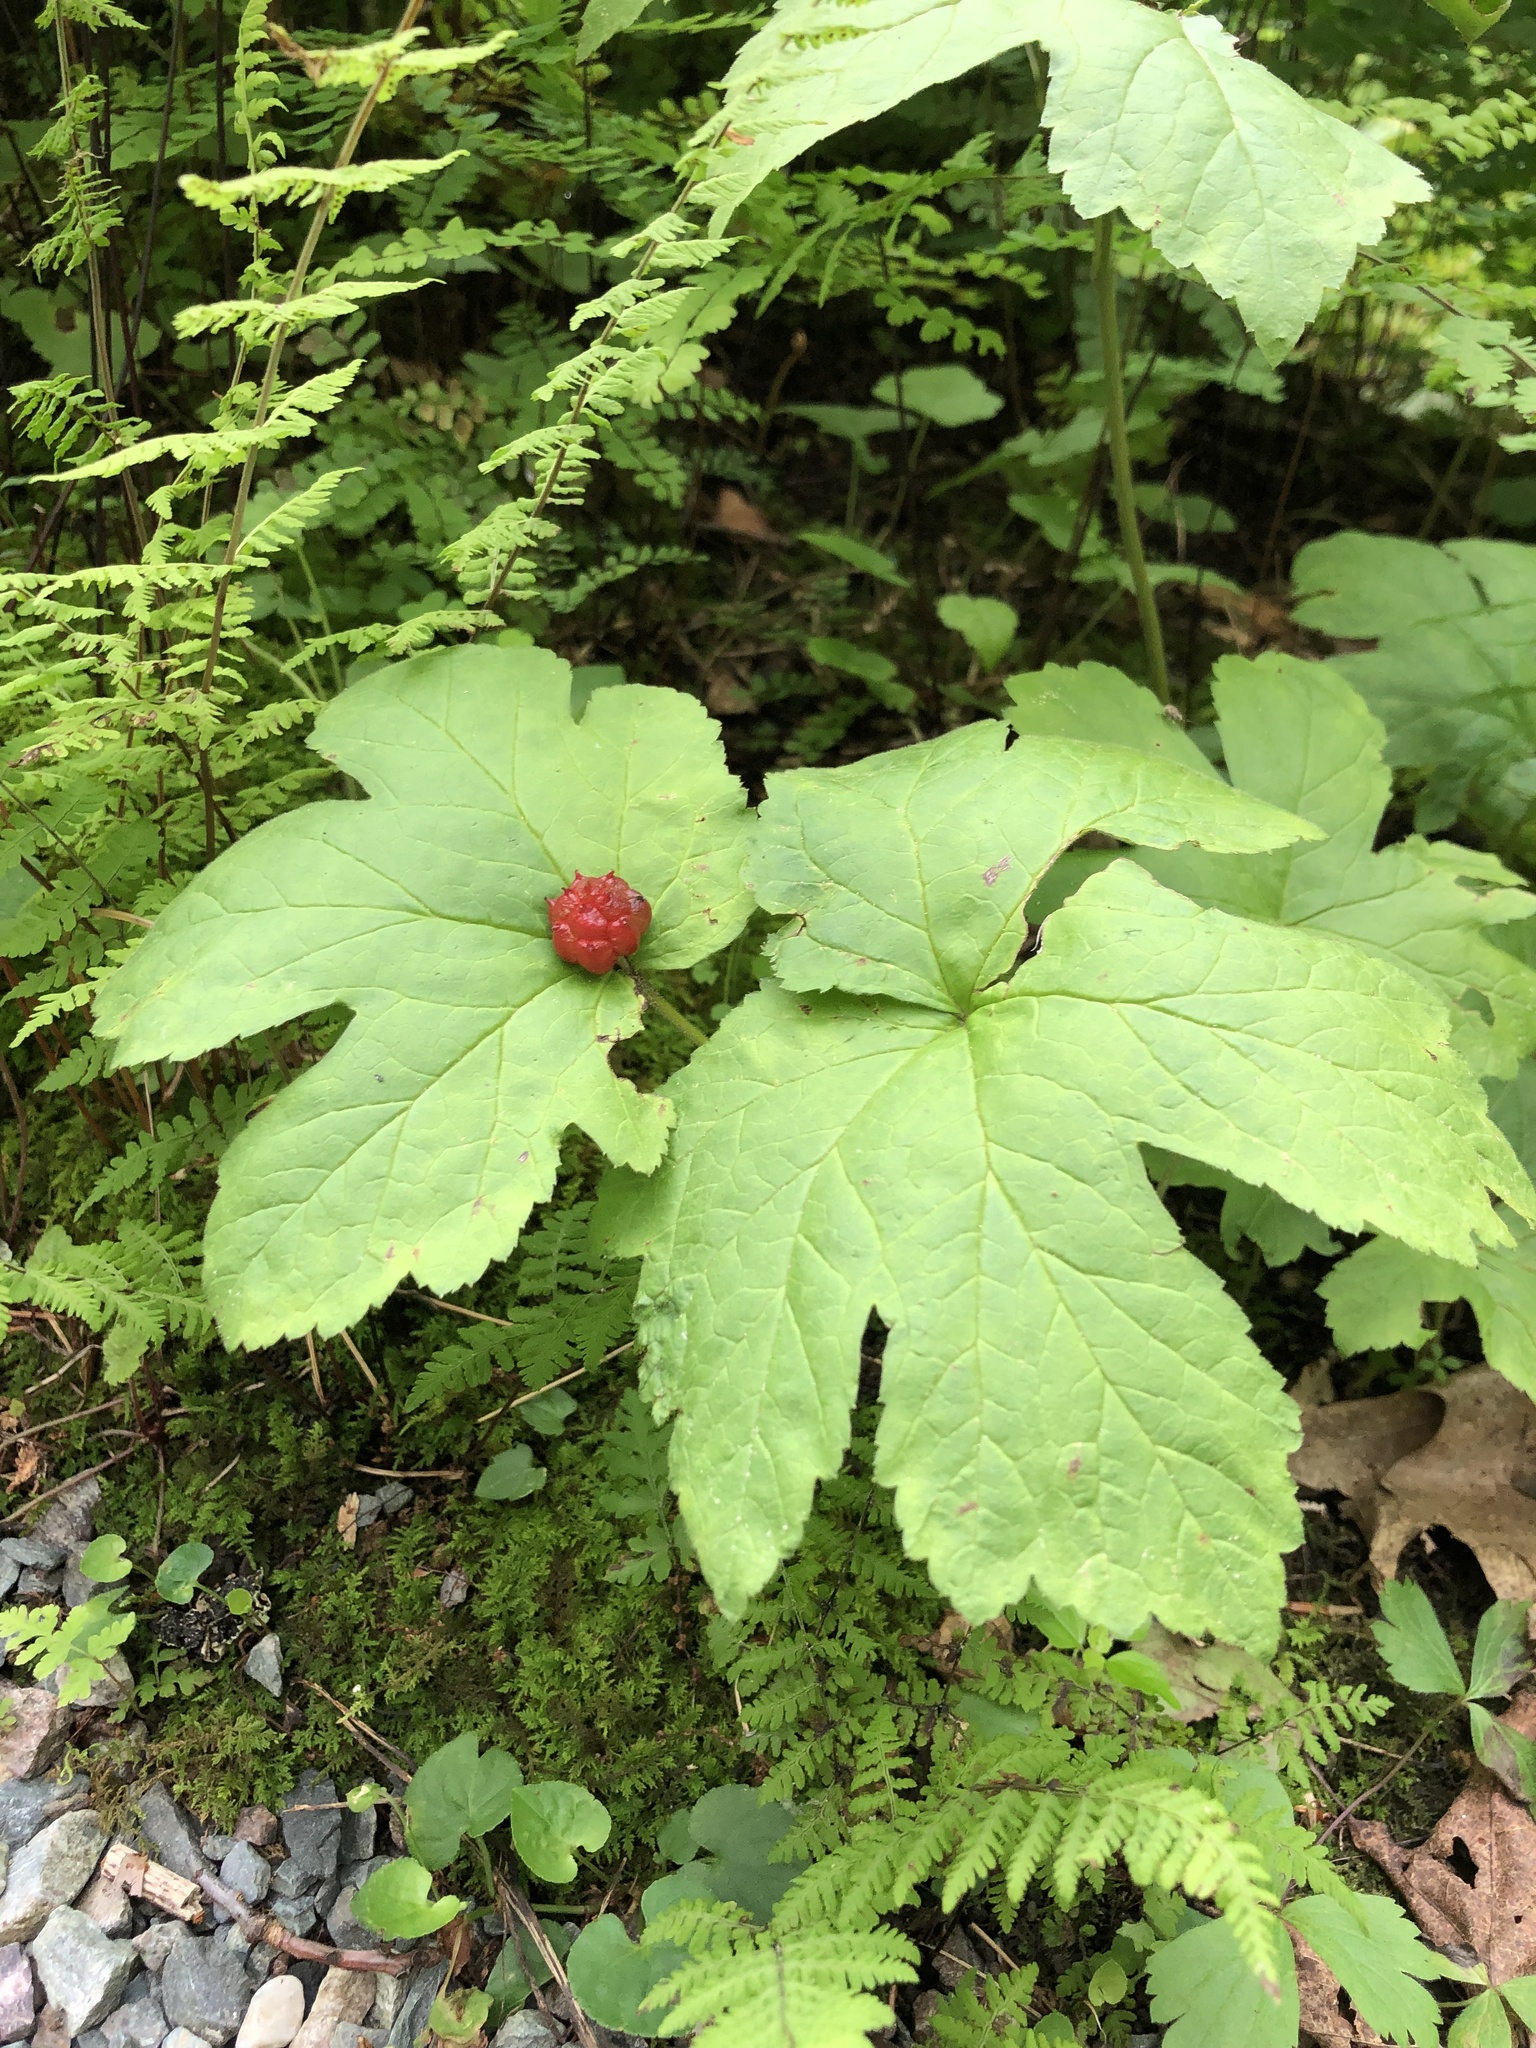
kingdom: Plantae
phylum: Tracheophyta
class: Magnoliopsida
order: Ranunculales
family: Ranunculaceae
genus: Hydrastis
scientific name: Hydrastis canadensis
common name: Goldenseal
